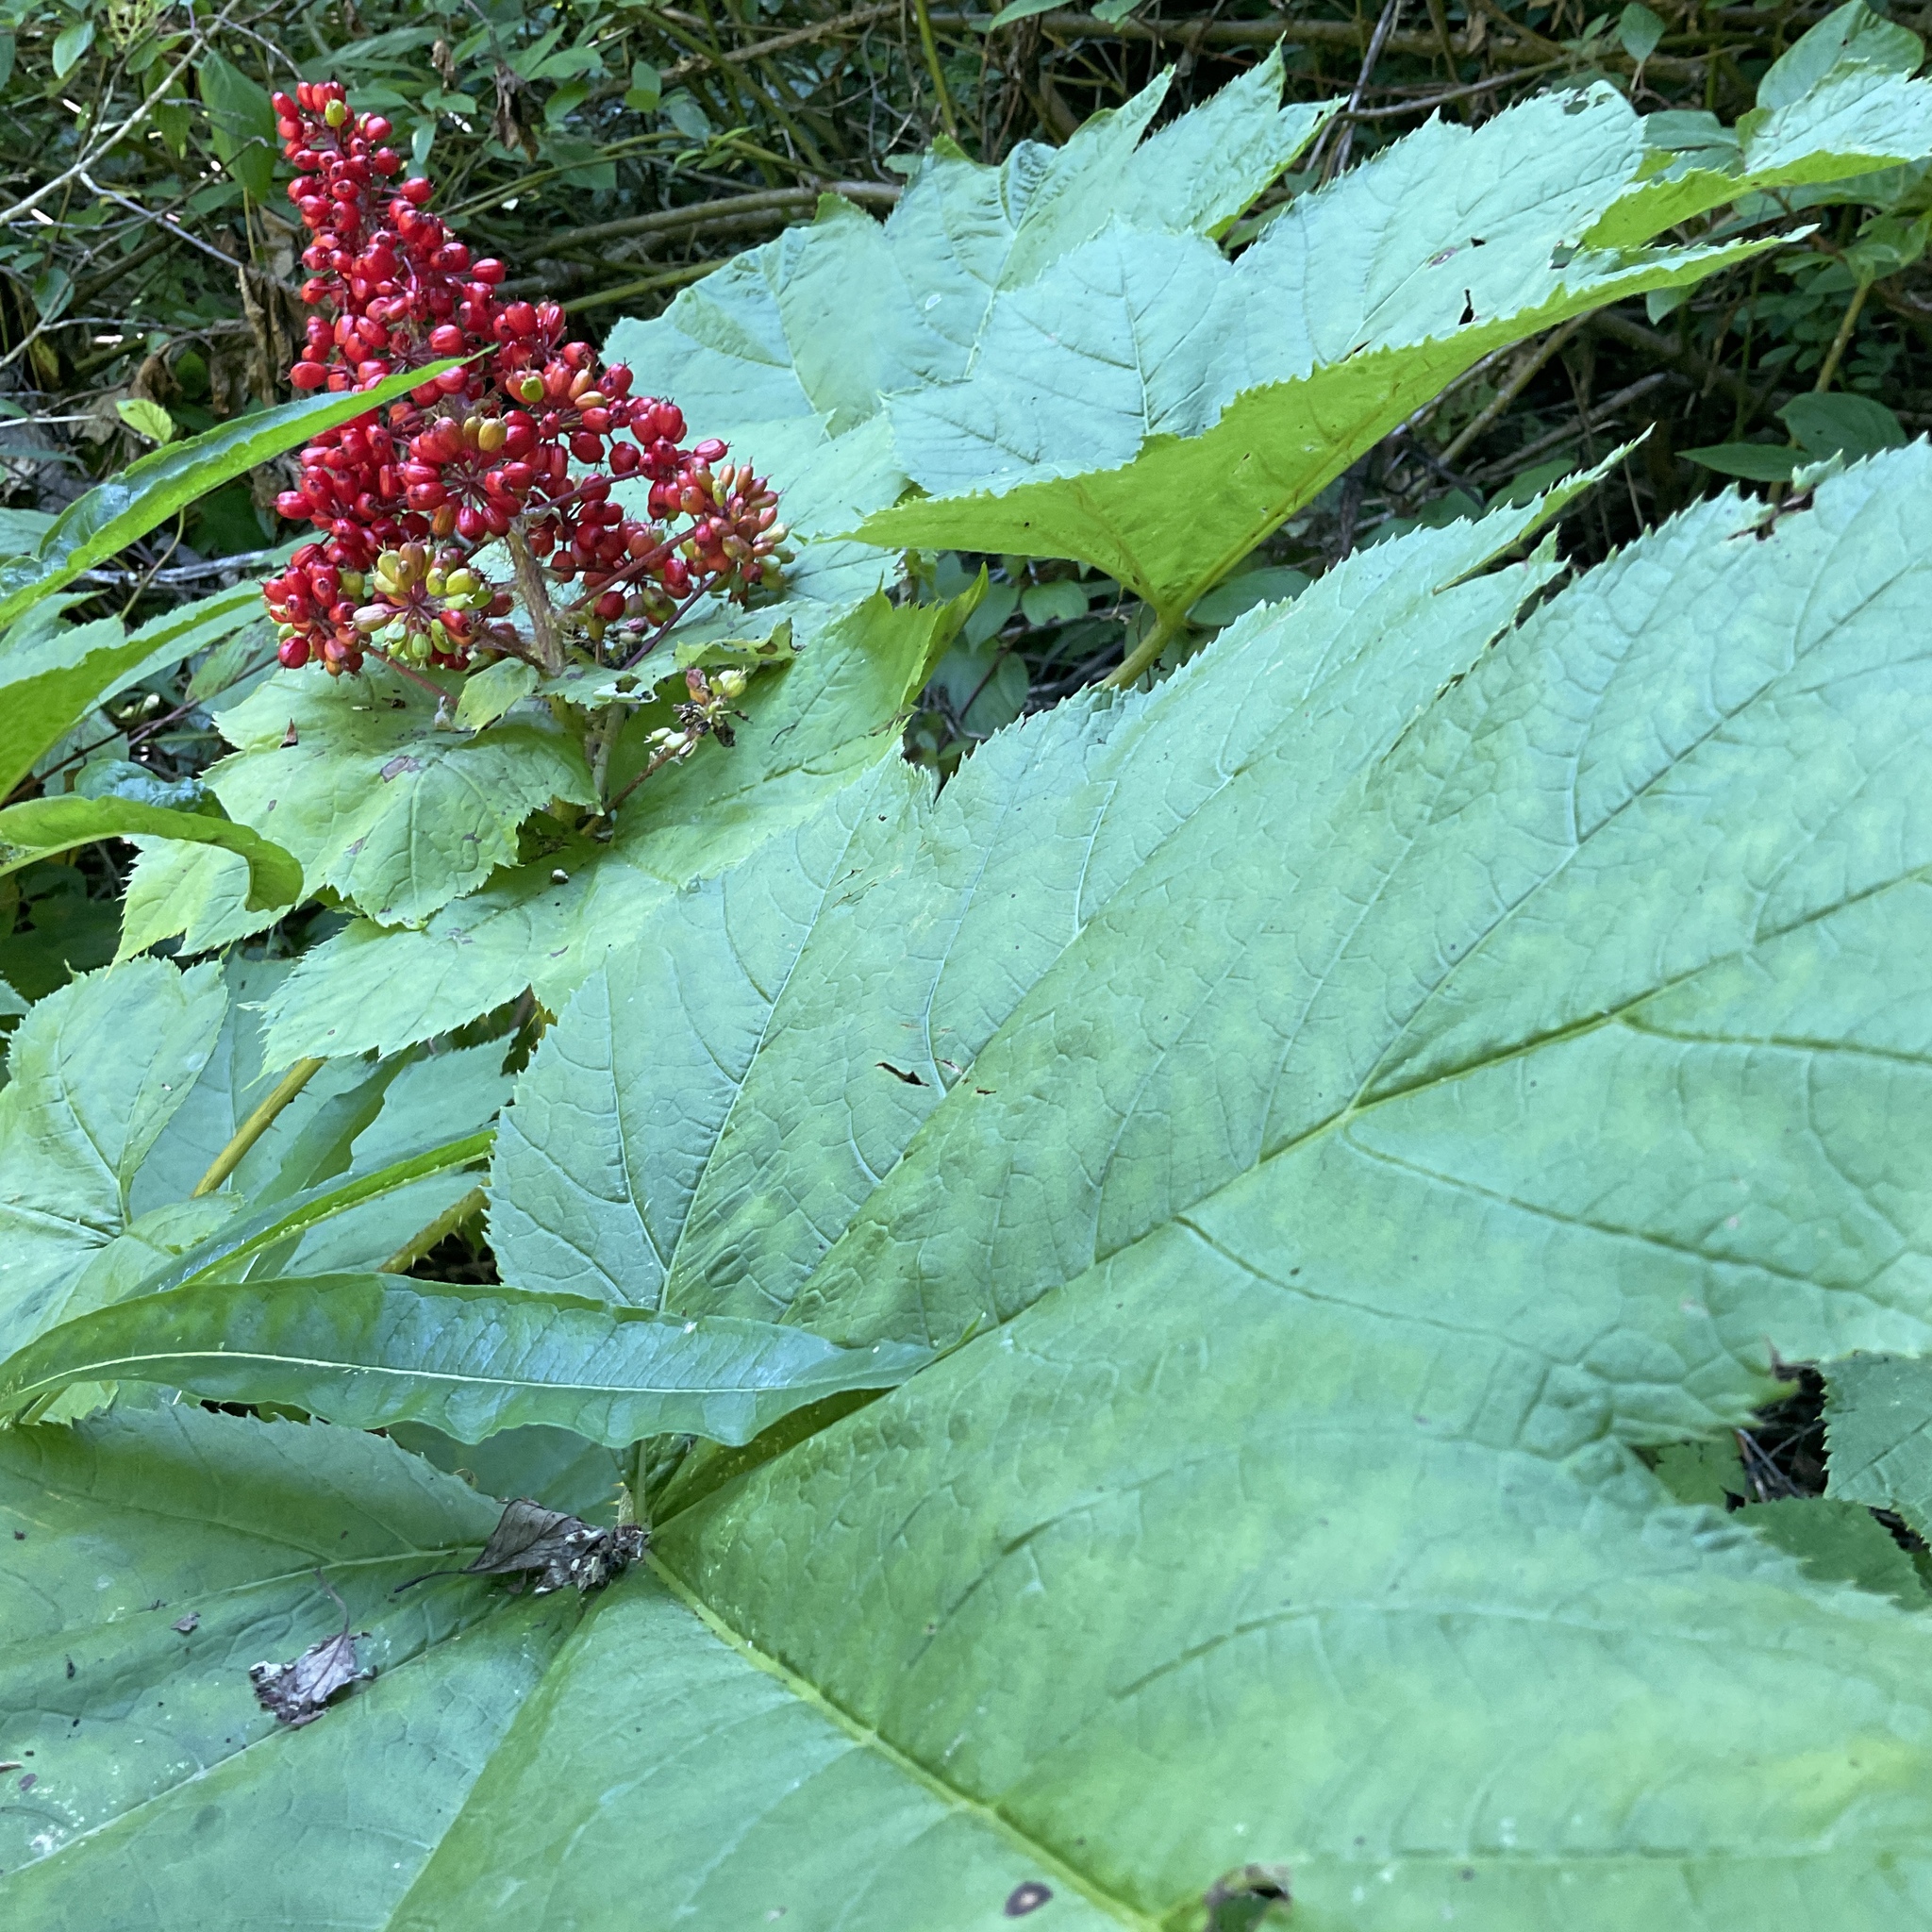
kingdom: Plantae
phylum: Tracheophyta
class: Magnoliopsida
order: Apiales
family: Araliaceae
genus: Oplopanax
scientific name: Oplopanax horridus
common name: Devil's walking-stick
